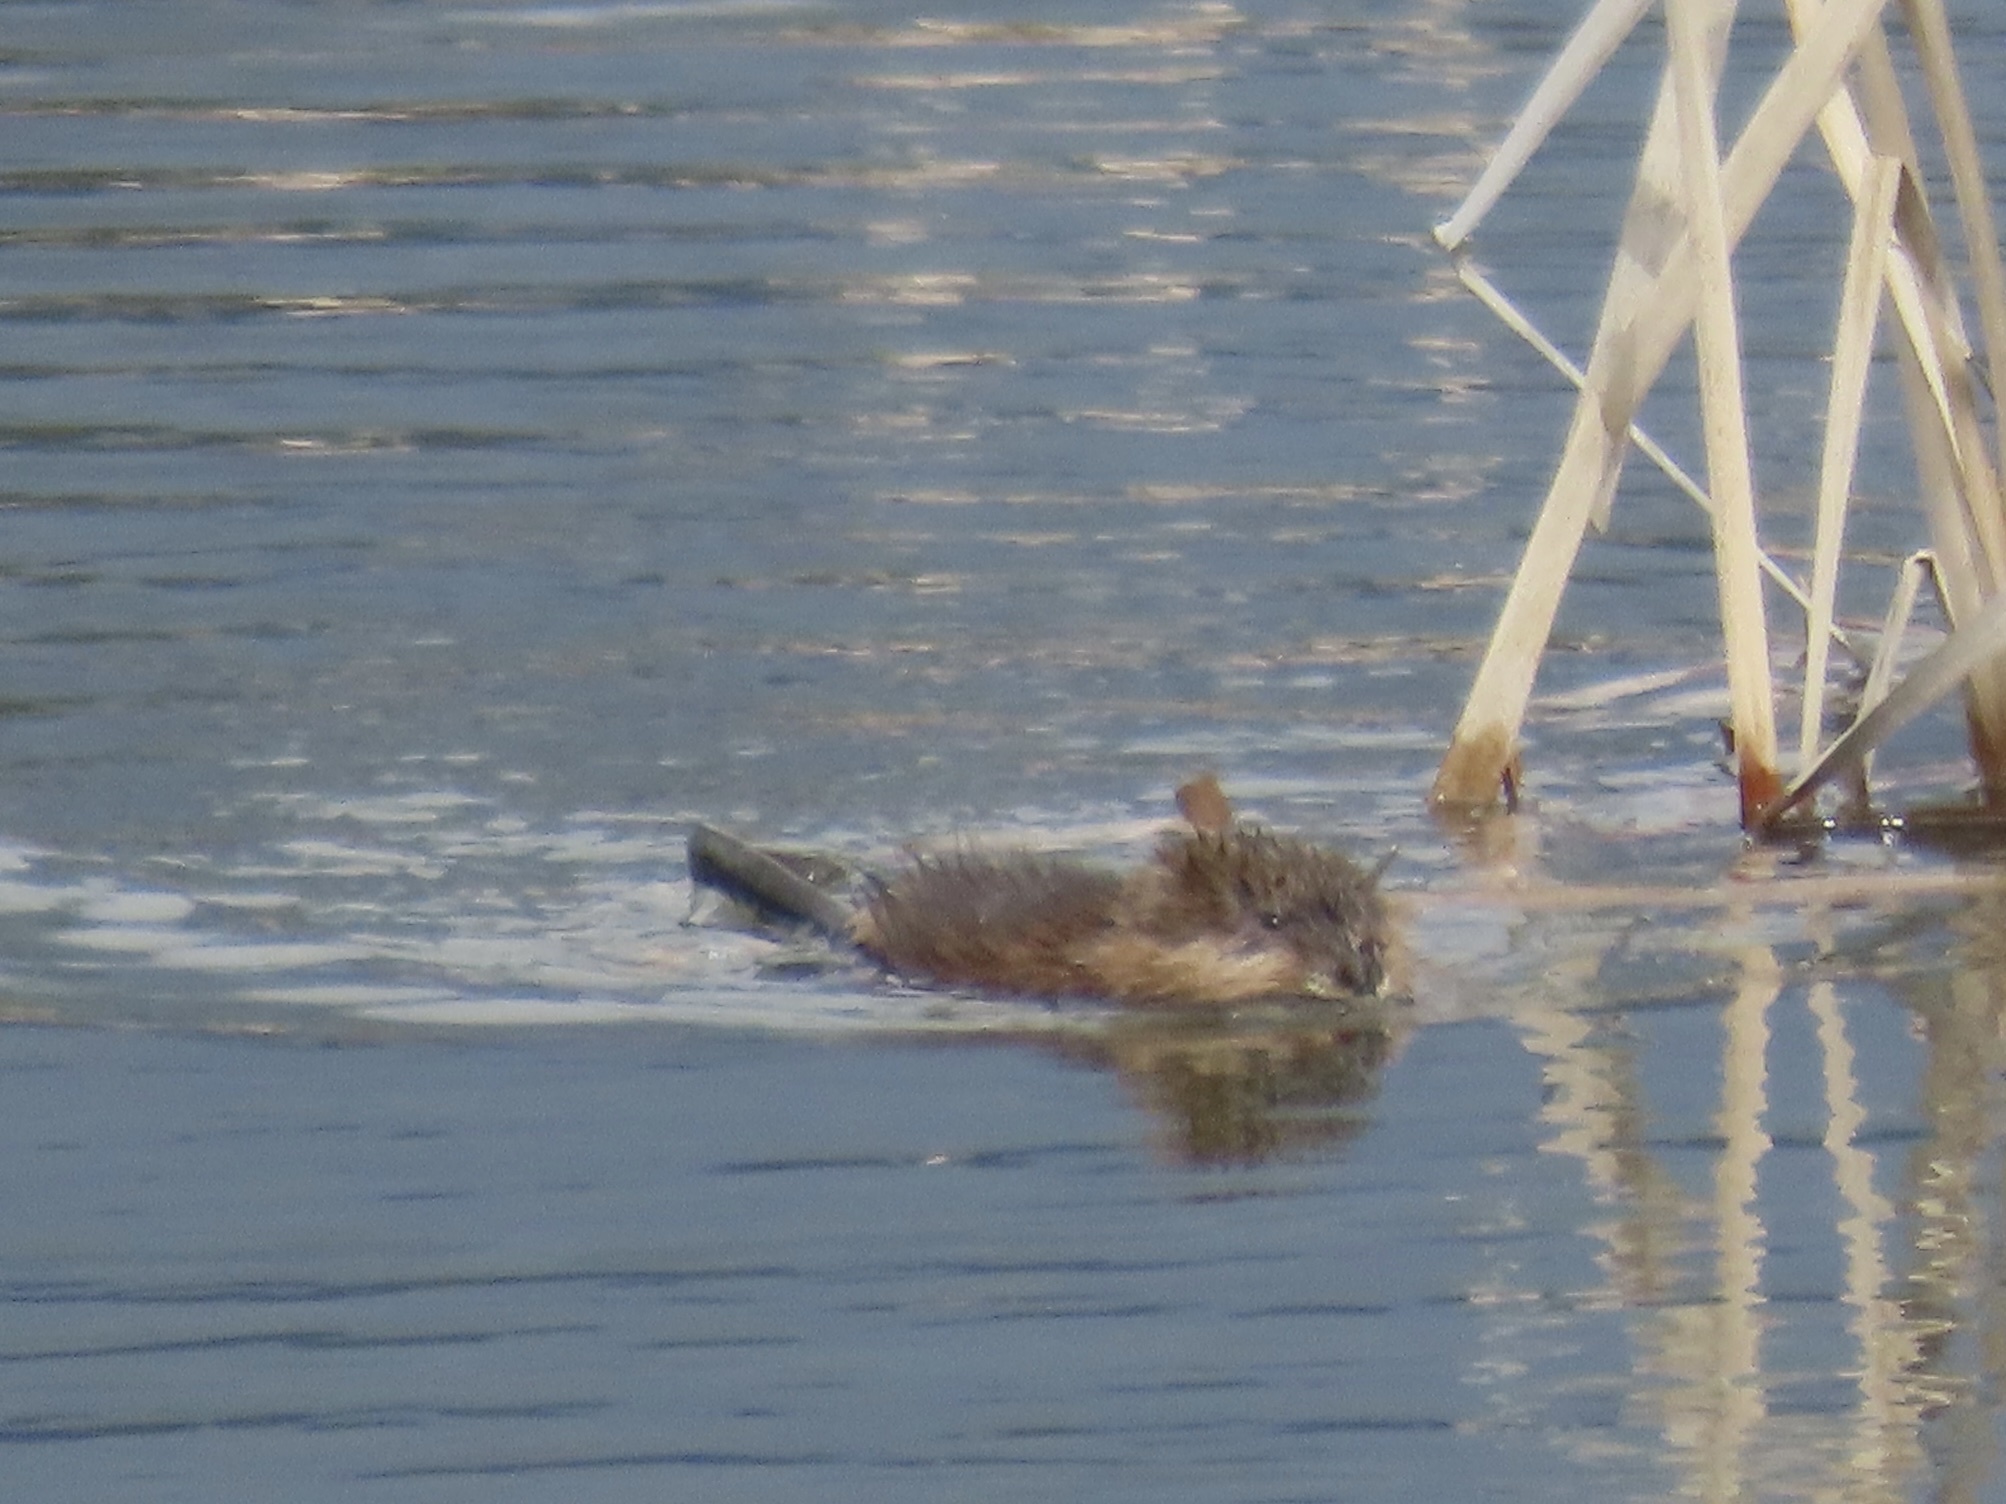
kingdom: Animalia
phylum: Chordata
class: Mammalia
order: Rodentia
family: Cricetidae
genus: Ondatra
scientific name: Ondatra zibethicus
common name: Muskrat
